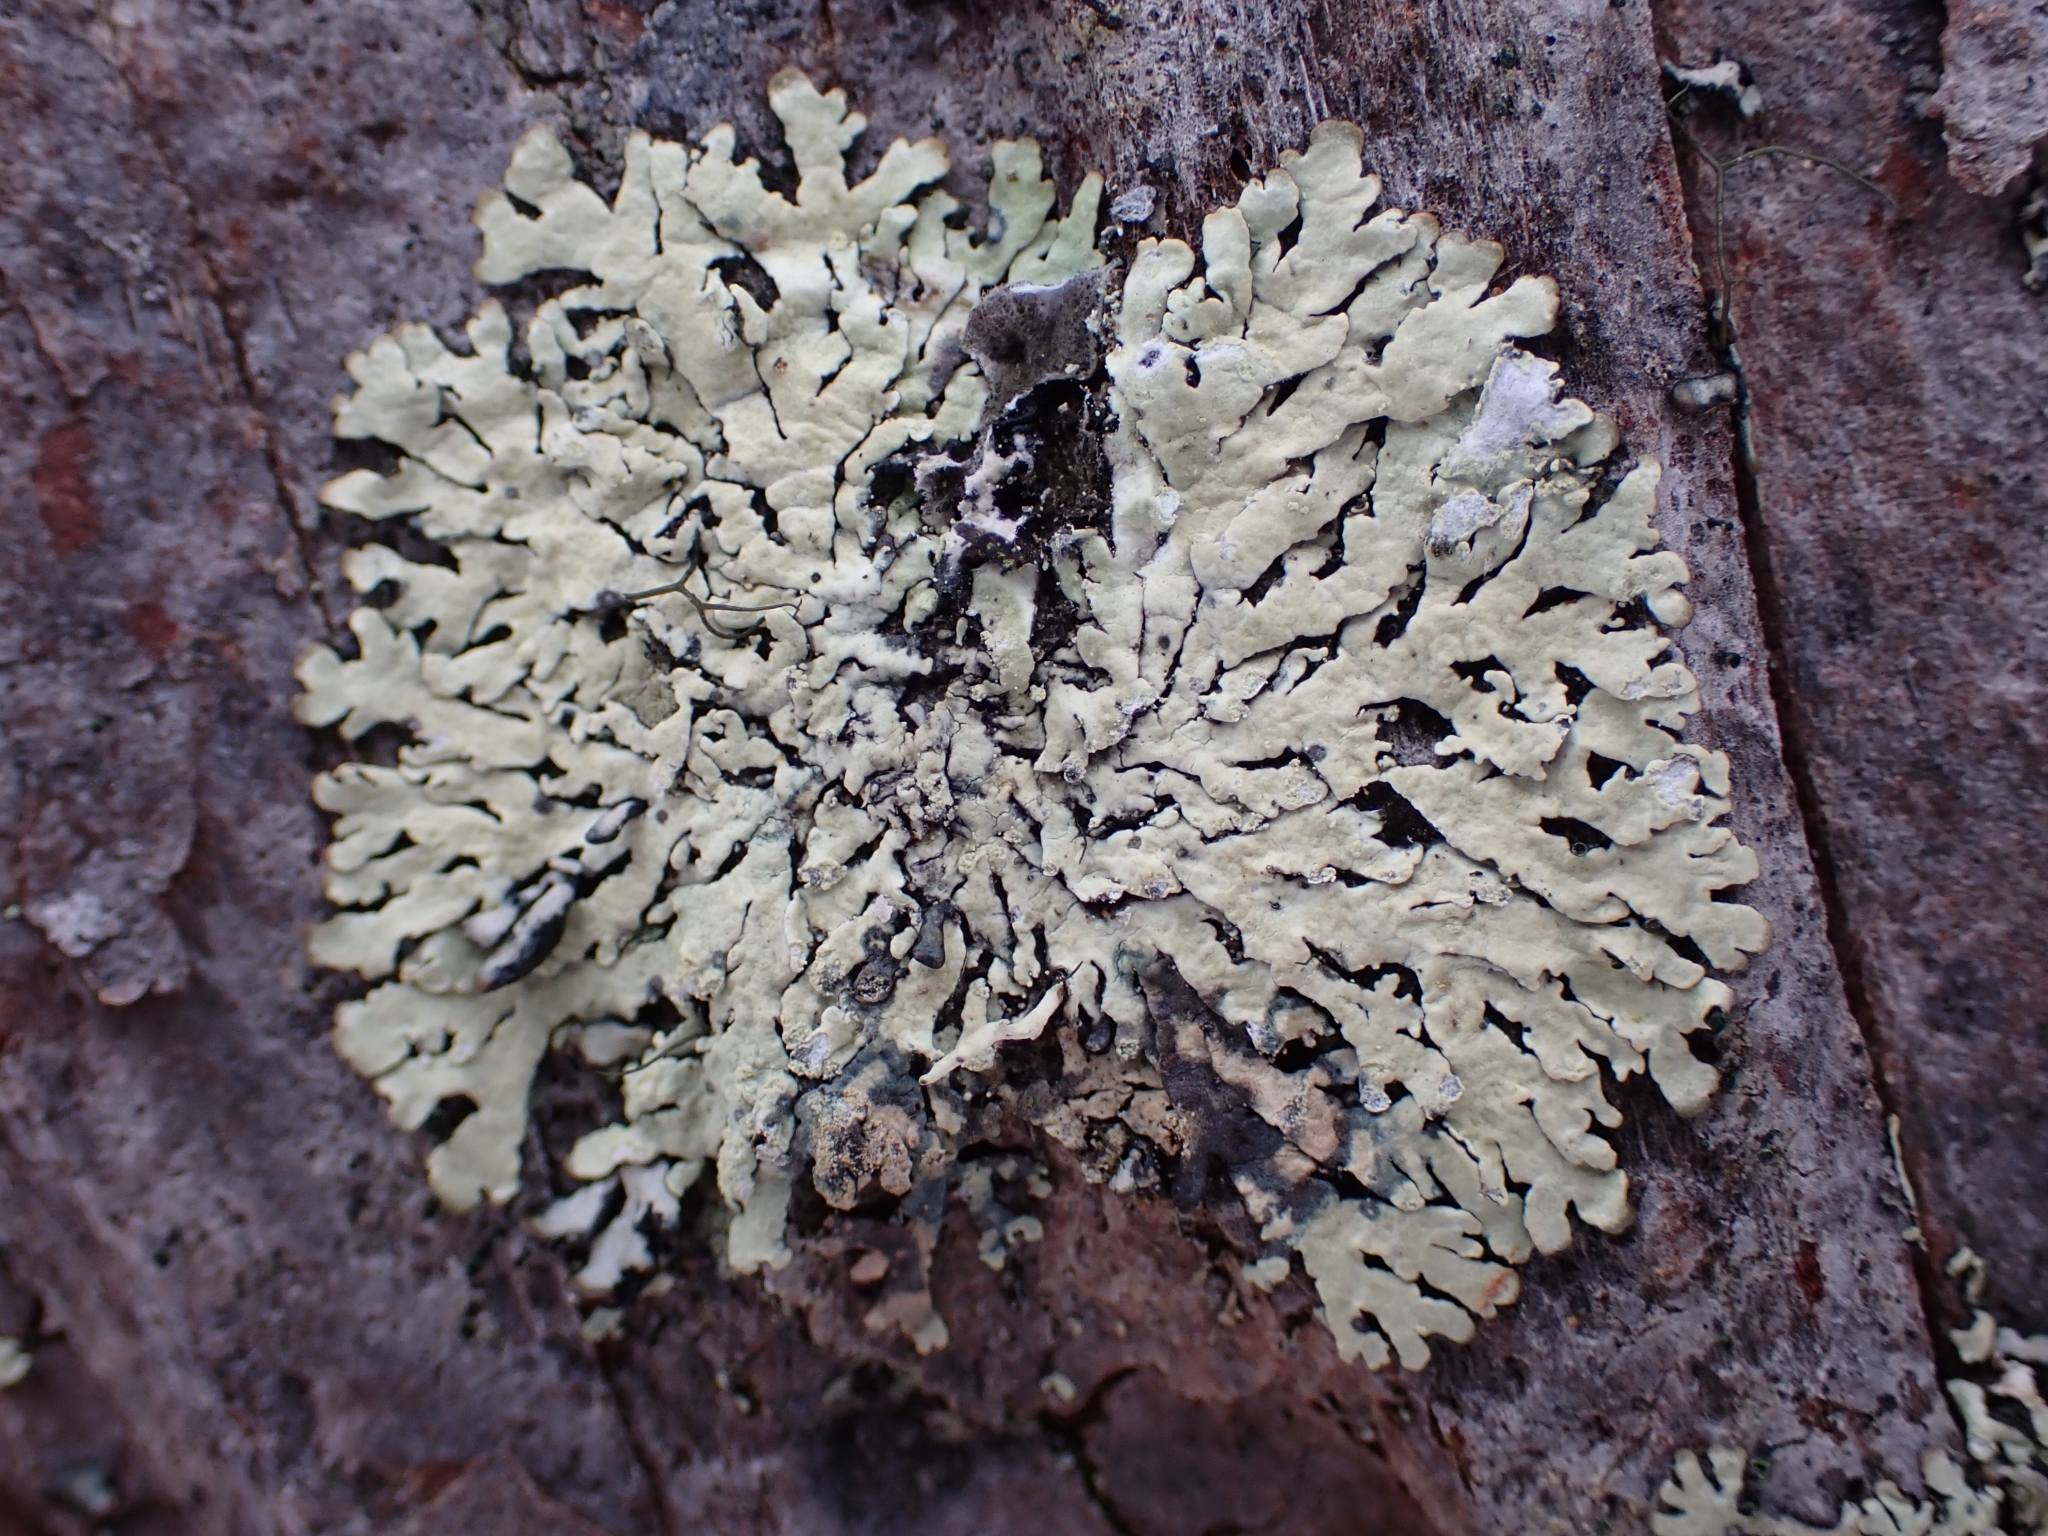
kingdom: Fungi
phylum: Ascomycota
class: Lecanoromycetes
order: Lecanorales
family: Parmeliaceae
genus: Parmeliopsis
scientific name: Parmeliopsis ambigua
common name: Green starburst lichen
